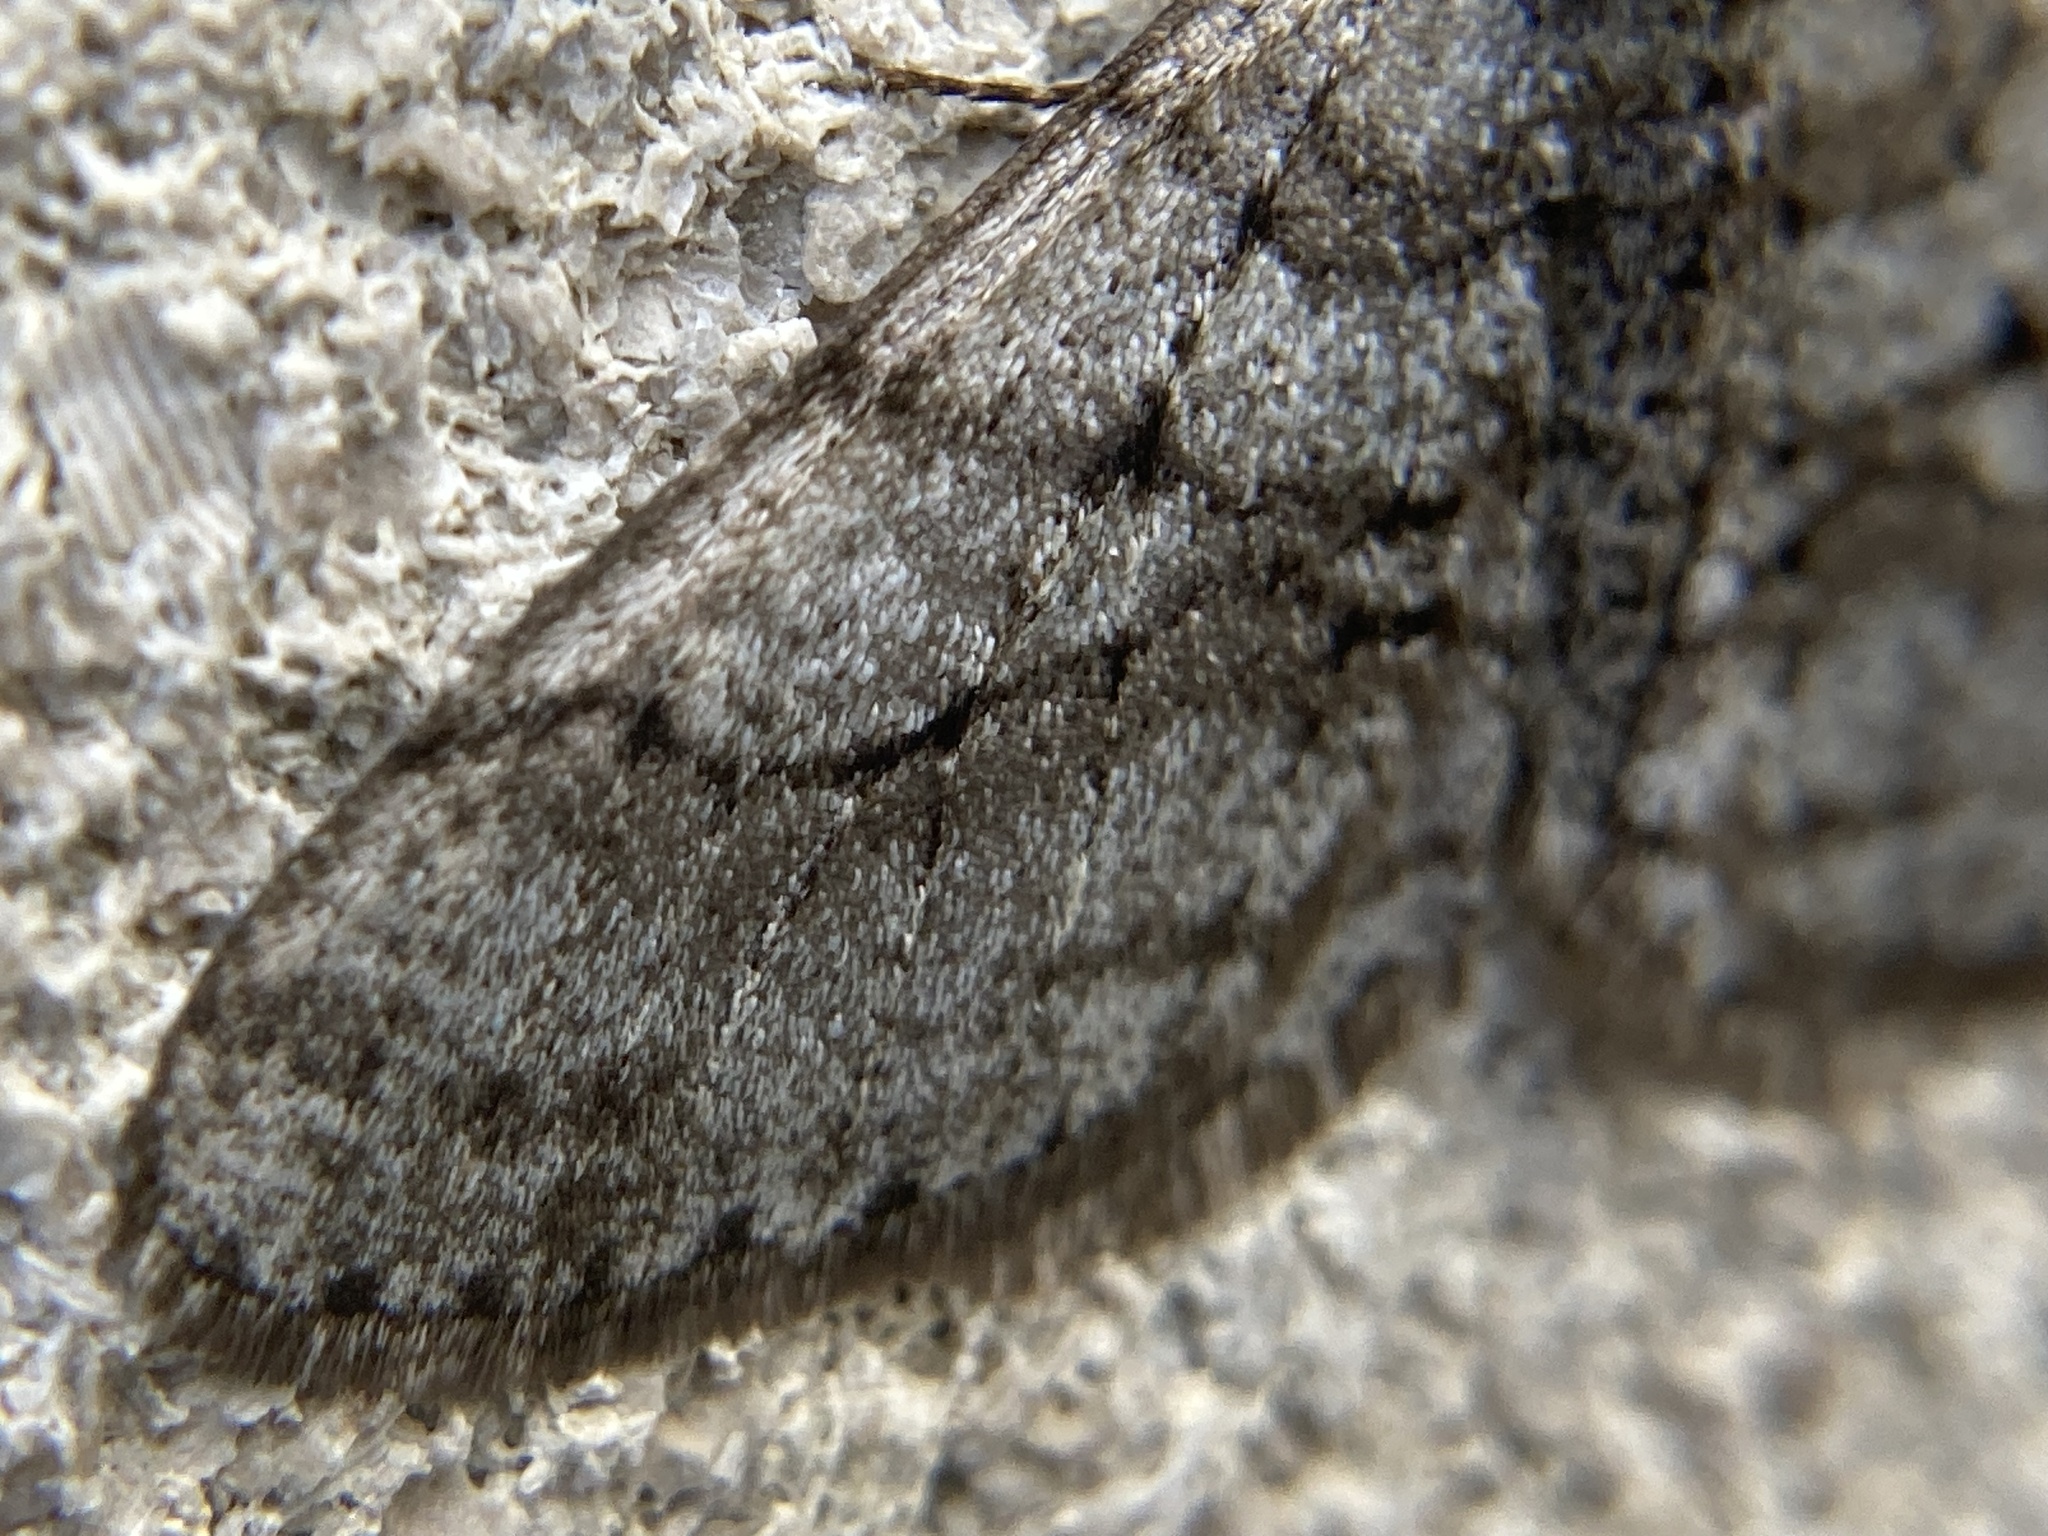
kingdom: Animalia
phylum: Arthropoda
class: Insecta
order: Lepidoptera
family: Geometridae
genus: Phigalia
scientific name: Phigalia titea
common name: Spiny looper
